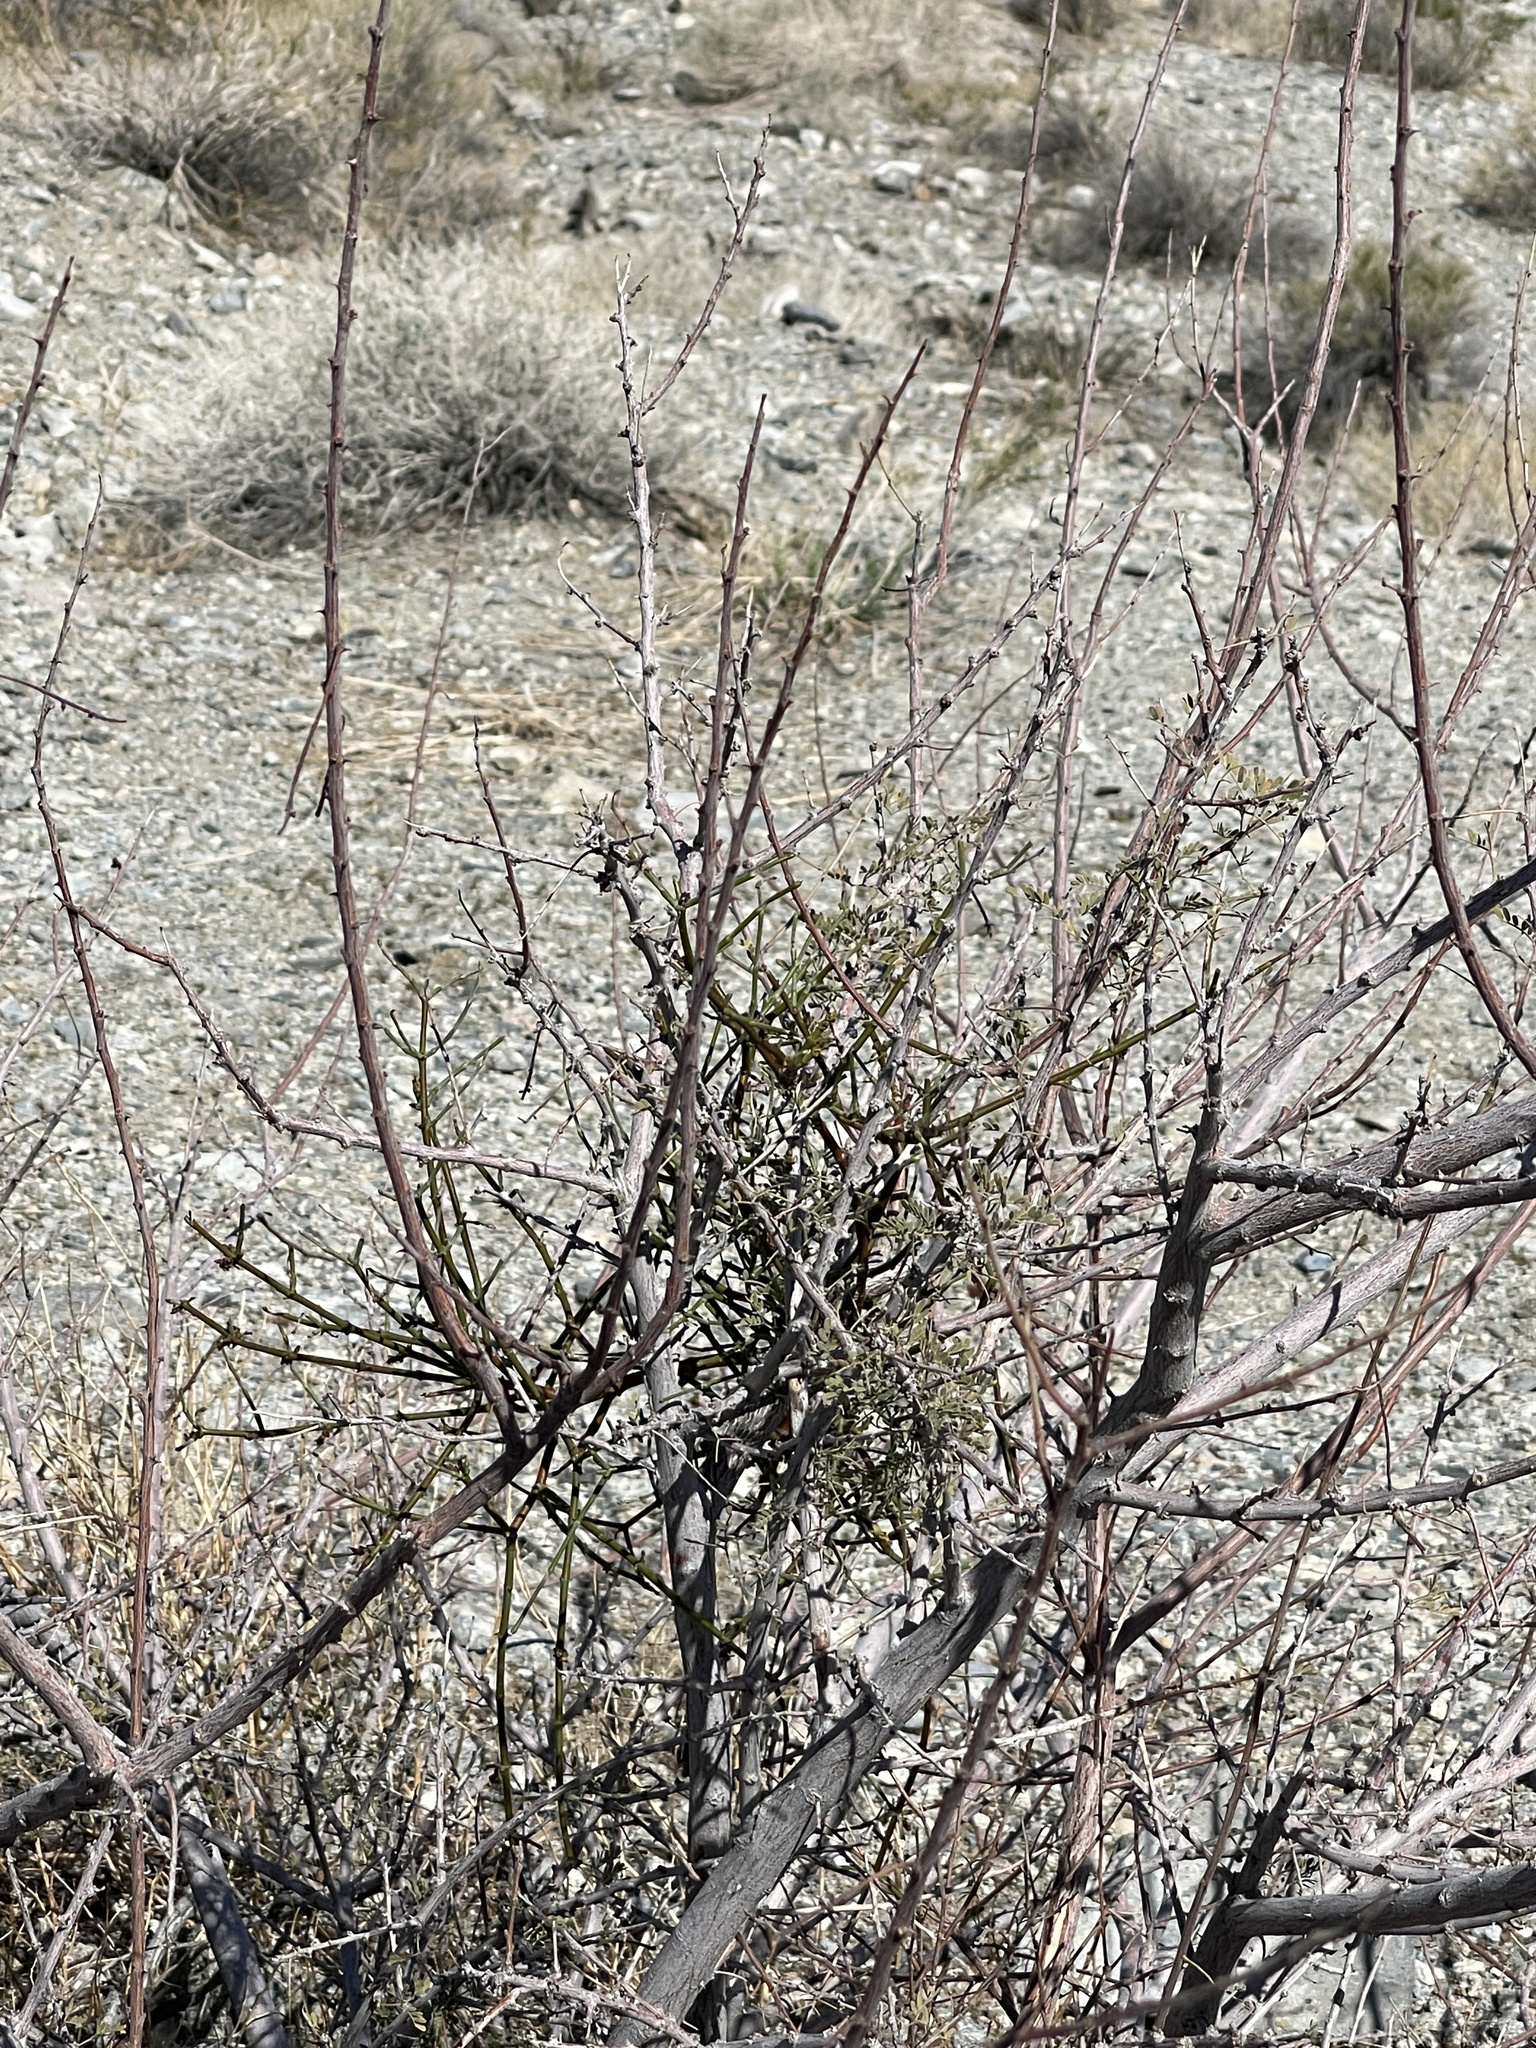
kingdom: Plantae
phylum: Tracheophyta
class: Magnoliopsida
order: Santalales
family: Viscaceae
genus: Phoradendron
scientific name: Phoradendron californicum
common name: Acacia mistletoe
